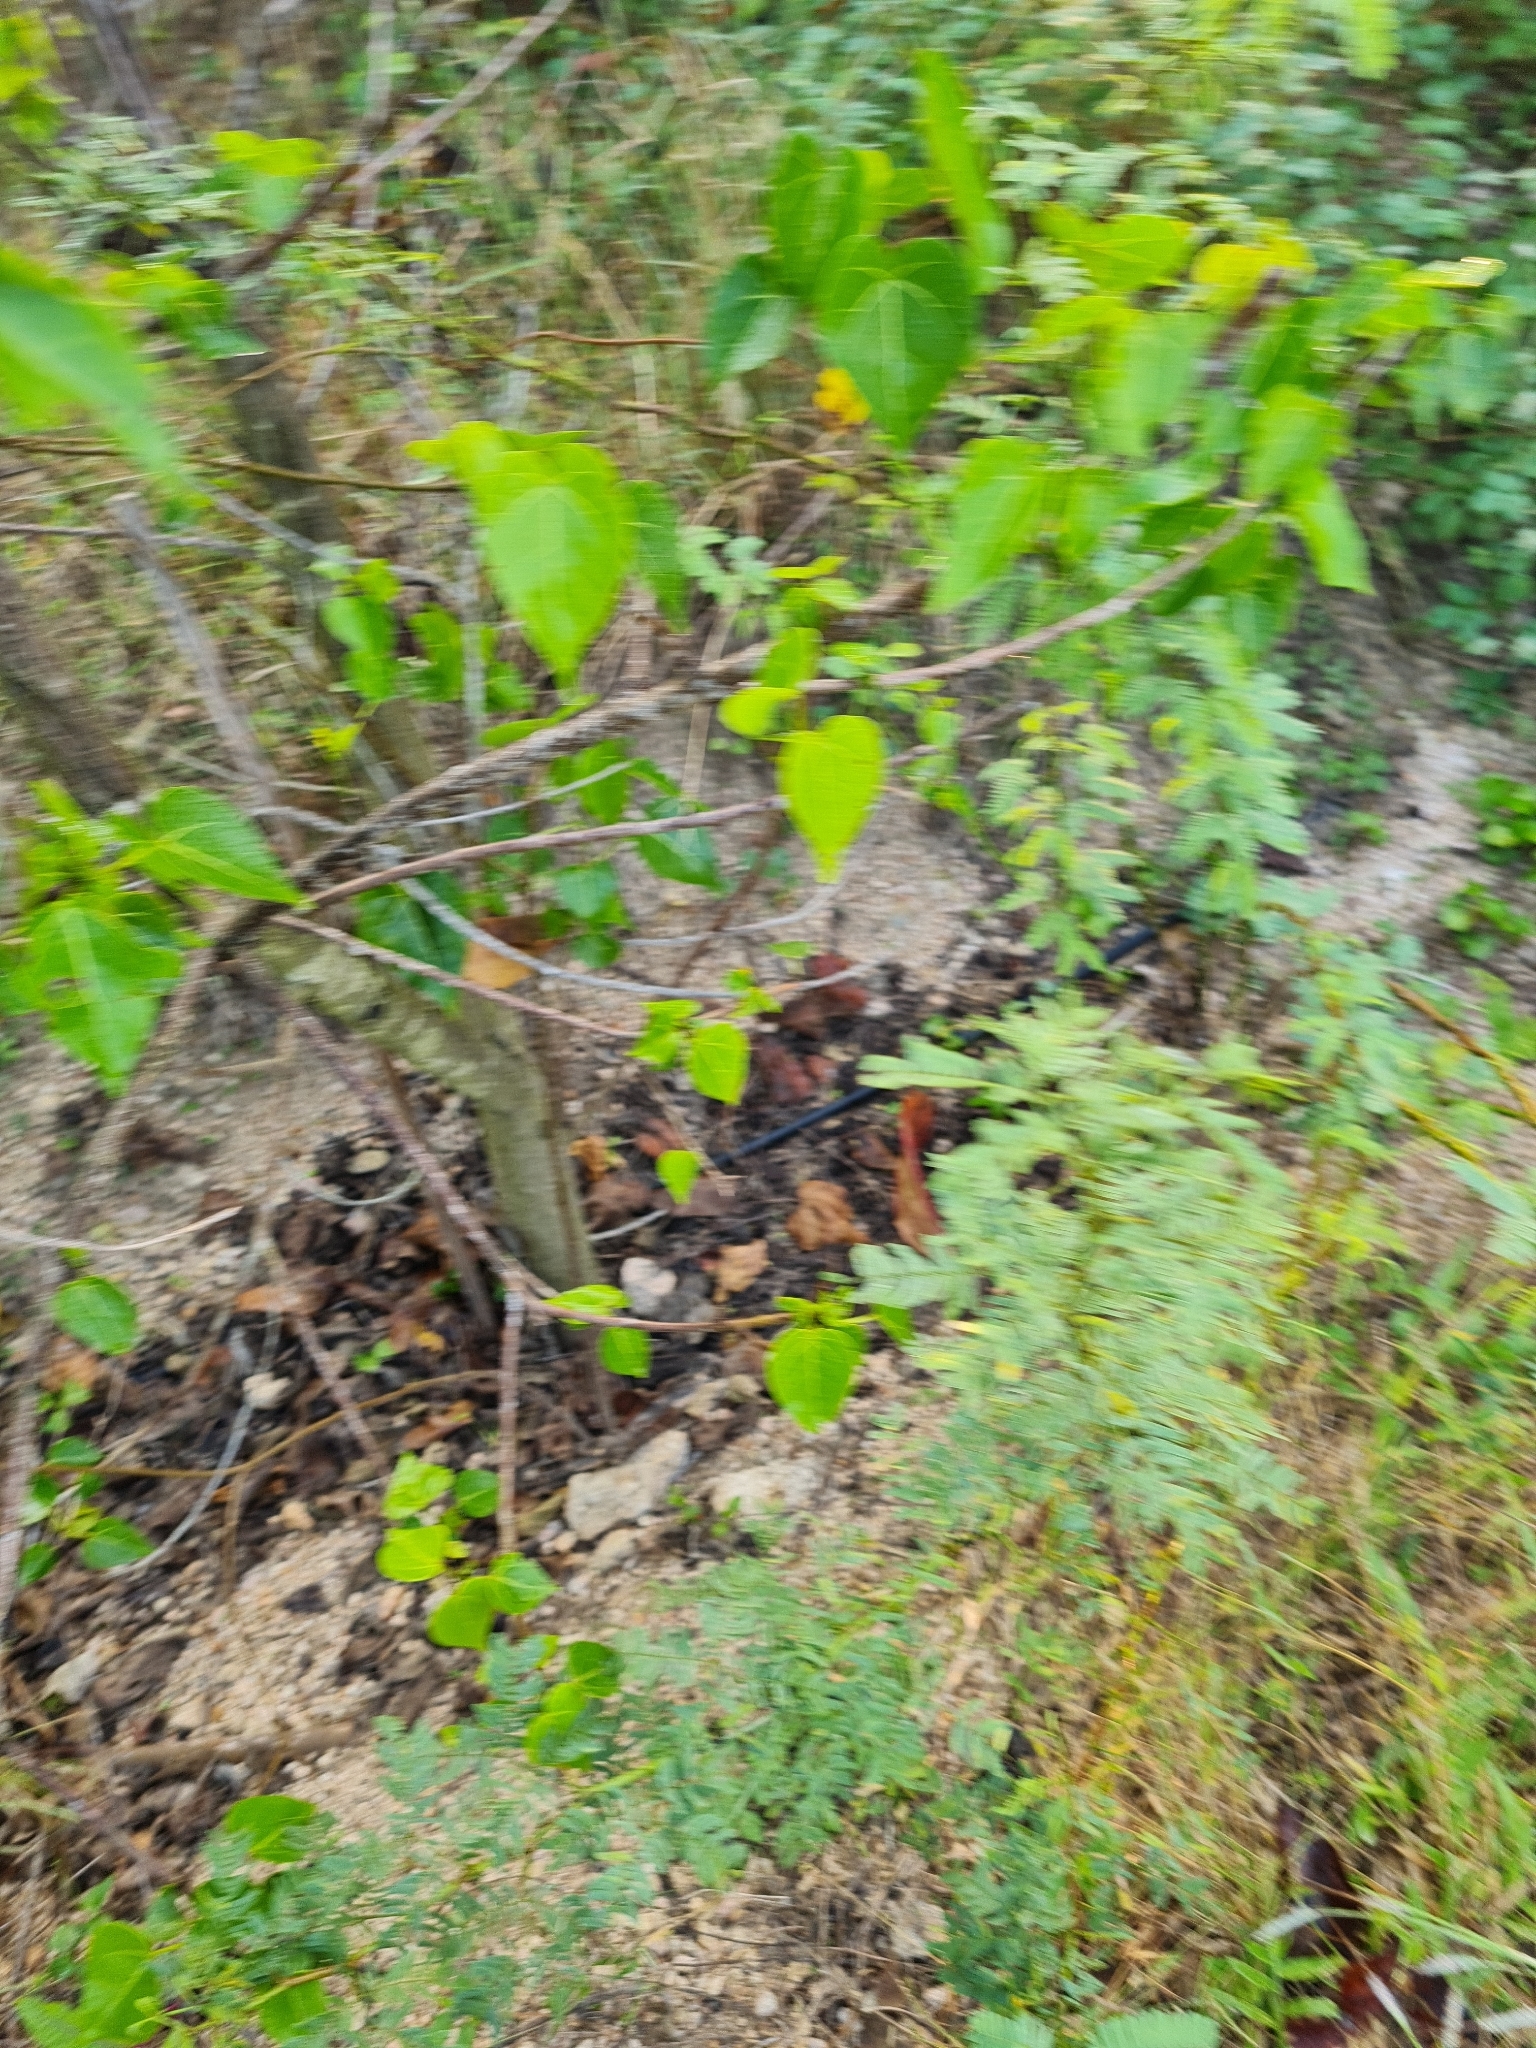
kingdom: Plantae
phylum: Tracheophyta
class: Magnoliopsida
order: Malvales
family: Malvaceae
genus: Thespesia
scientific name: Thespesia populnea
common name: Seaside mahoe
